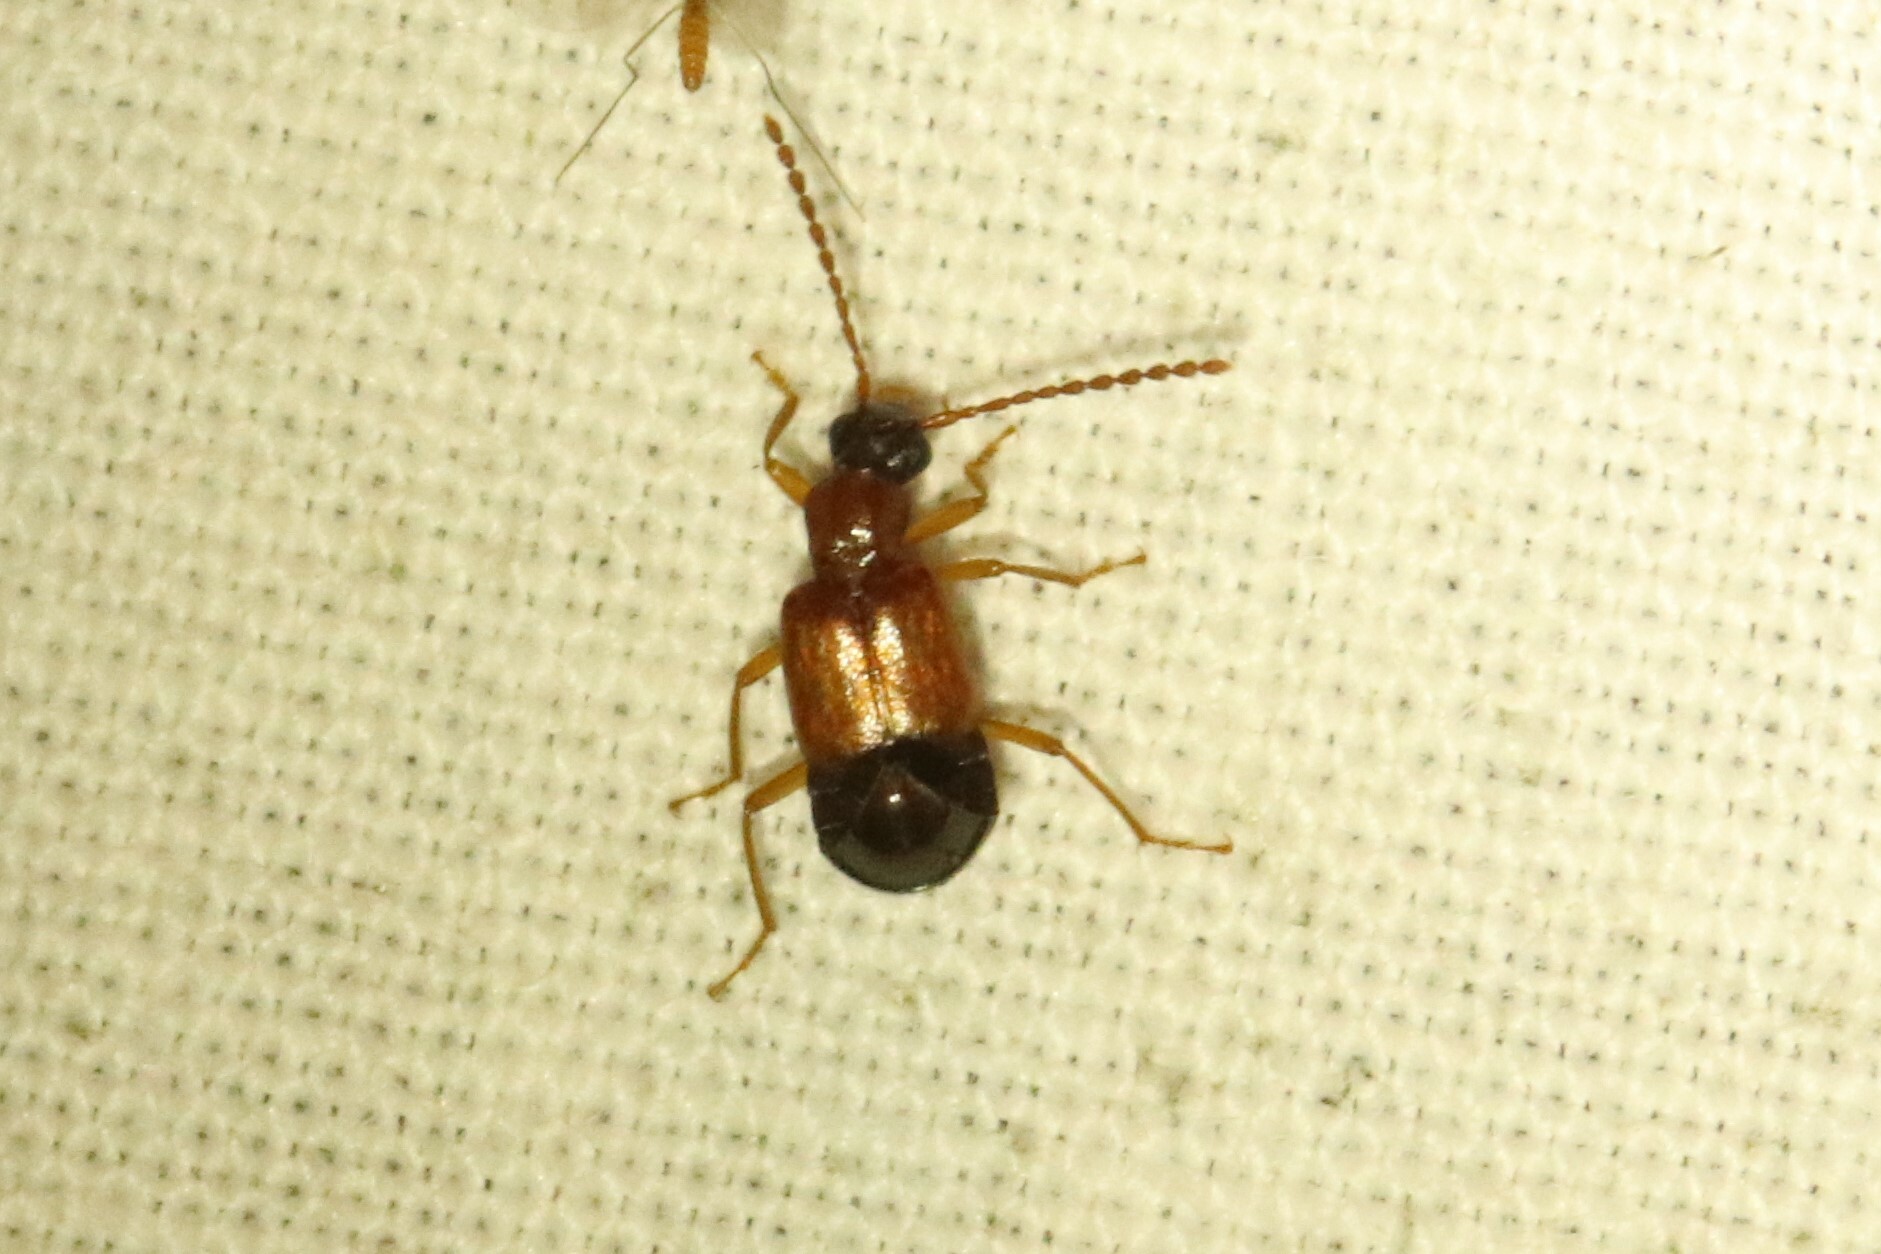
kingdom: Animalia
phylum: Arthropoda
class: Insecta
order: Coleoptera
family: Staphylinidae
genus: Deleaster
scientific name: Deleaster dichrous
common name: Rove beetle
